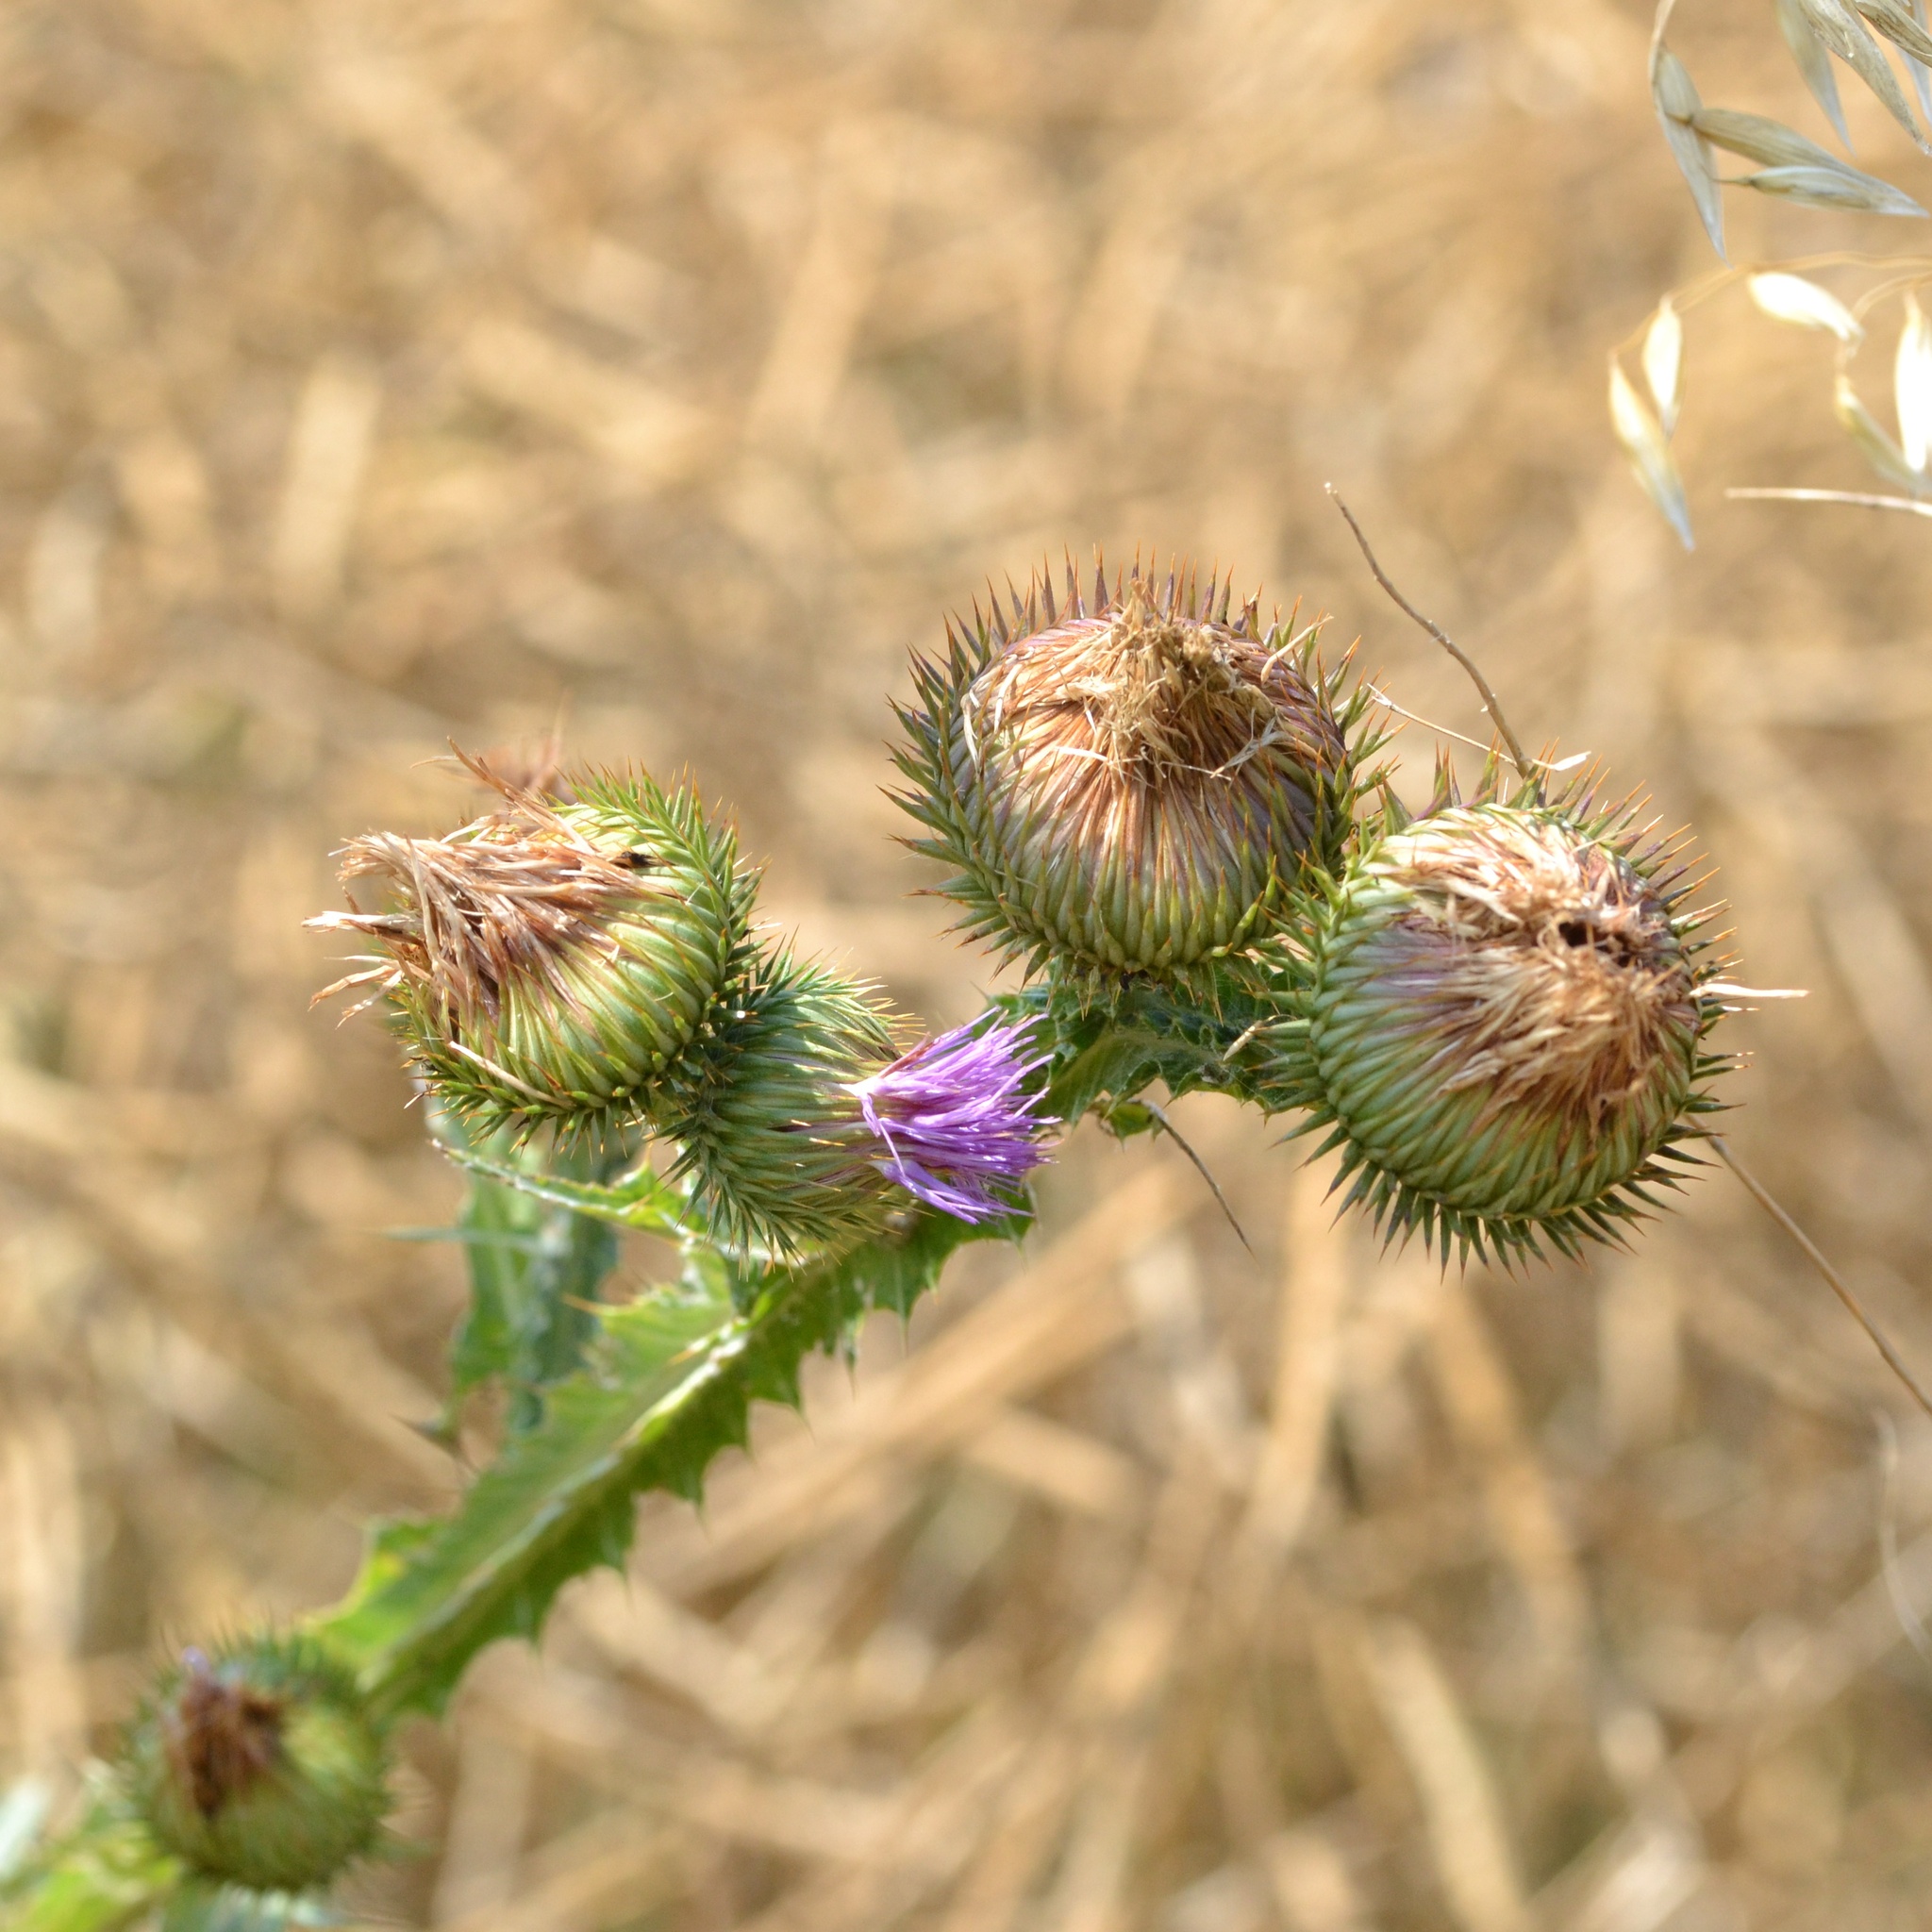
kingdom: Plantae
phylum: Tracheophyta
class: Magnoliopsida
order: Asterales
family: Asteraceae
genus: Onopordum
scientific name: Onopordum acanthium
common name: Scotch thistle
